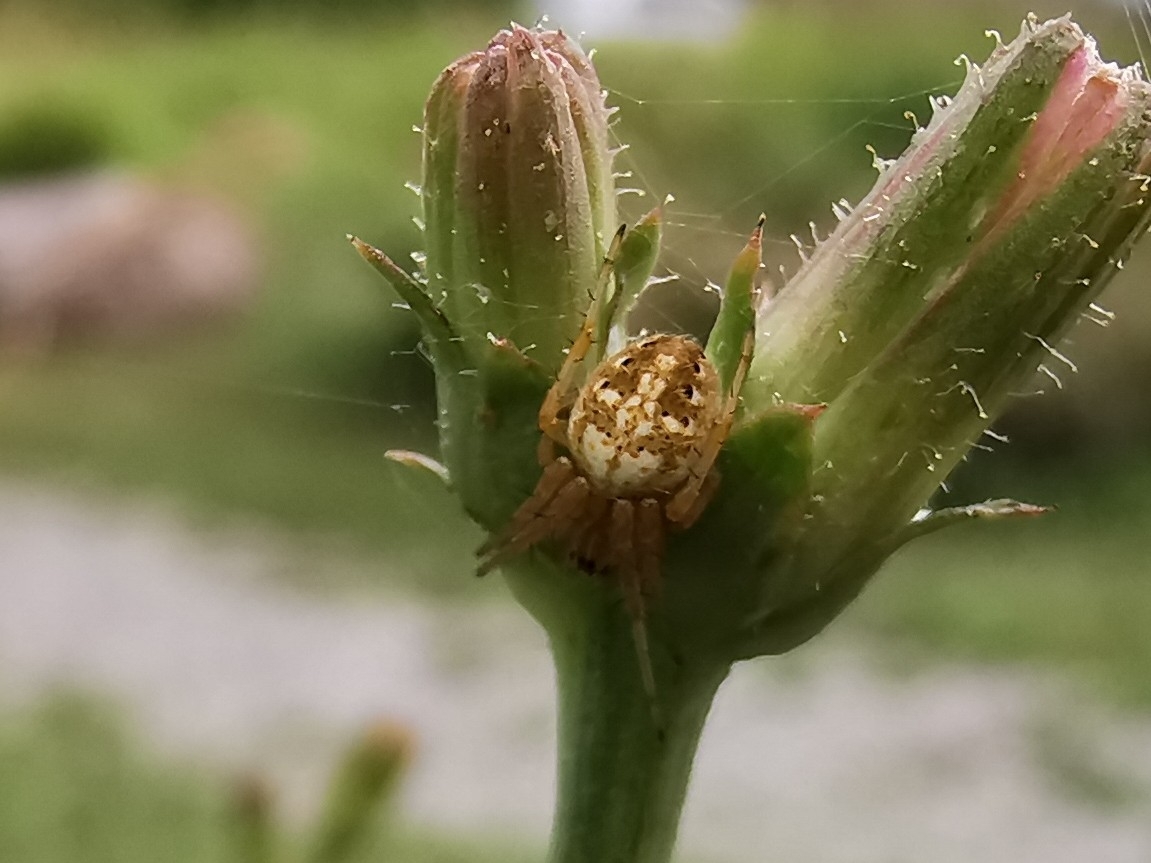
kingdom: Animalia
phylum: Arthropoda
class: Arachnida
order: Araneae
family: Araneidae
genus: Neoscona
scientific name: Neoscona arabesca
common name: Orb weavers
